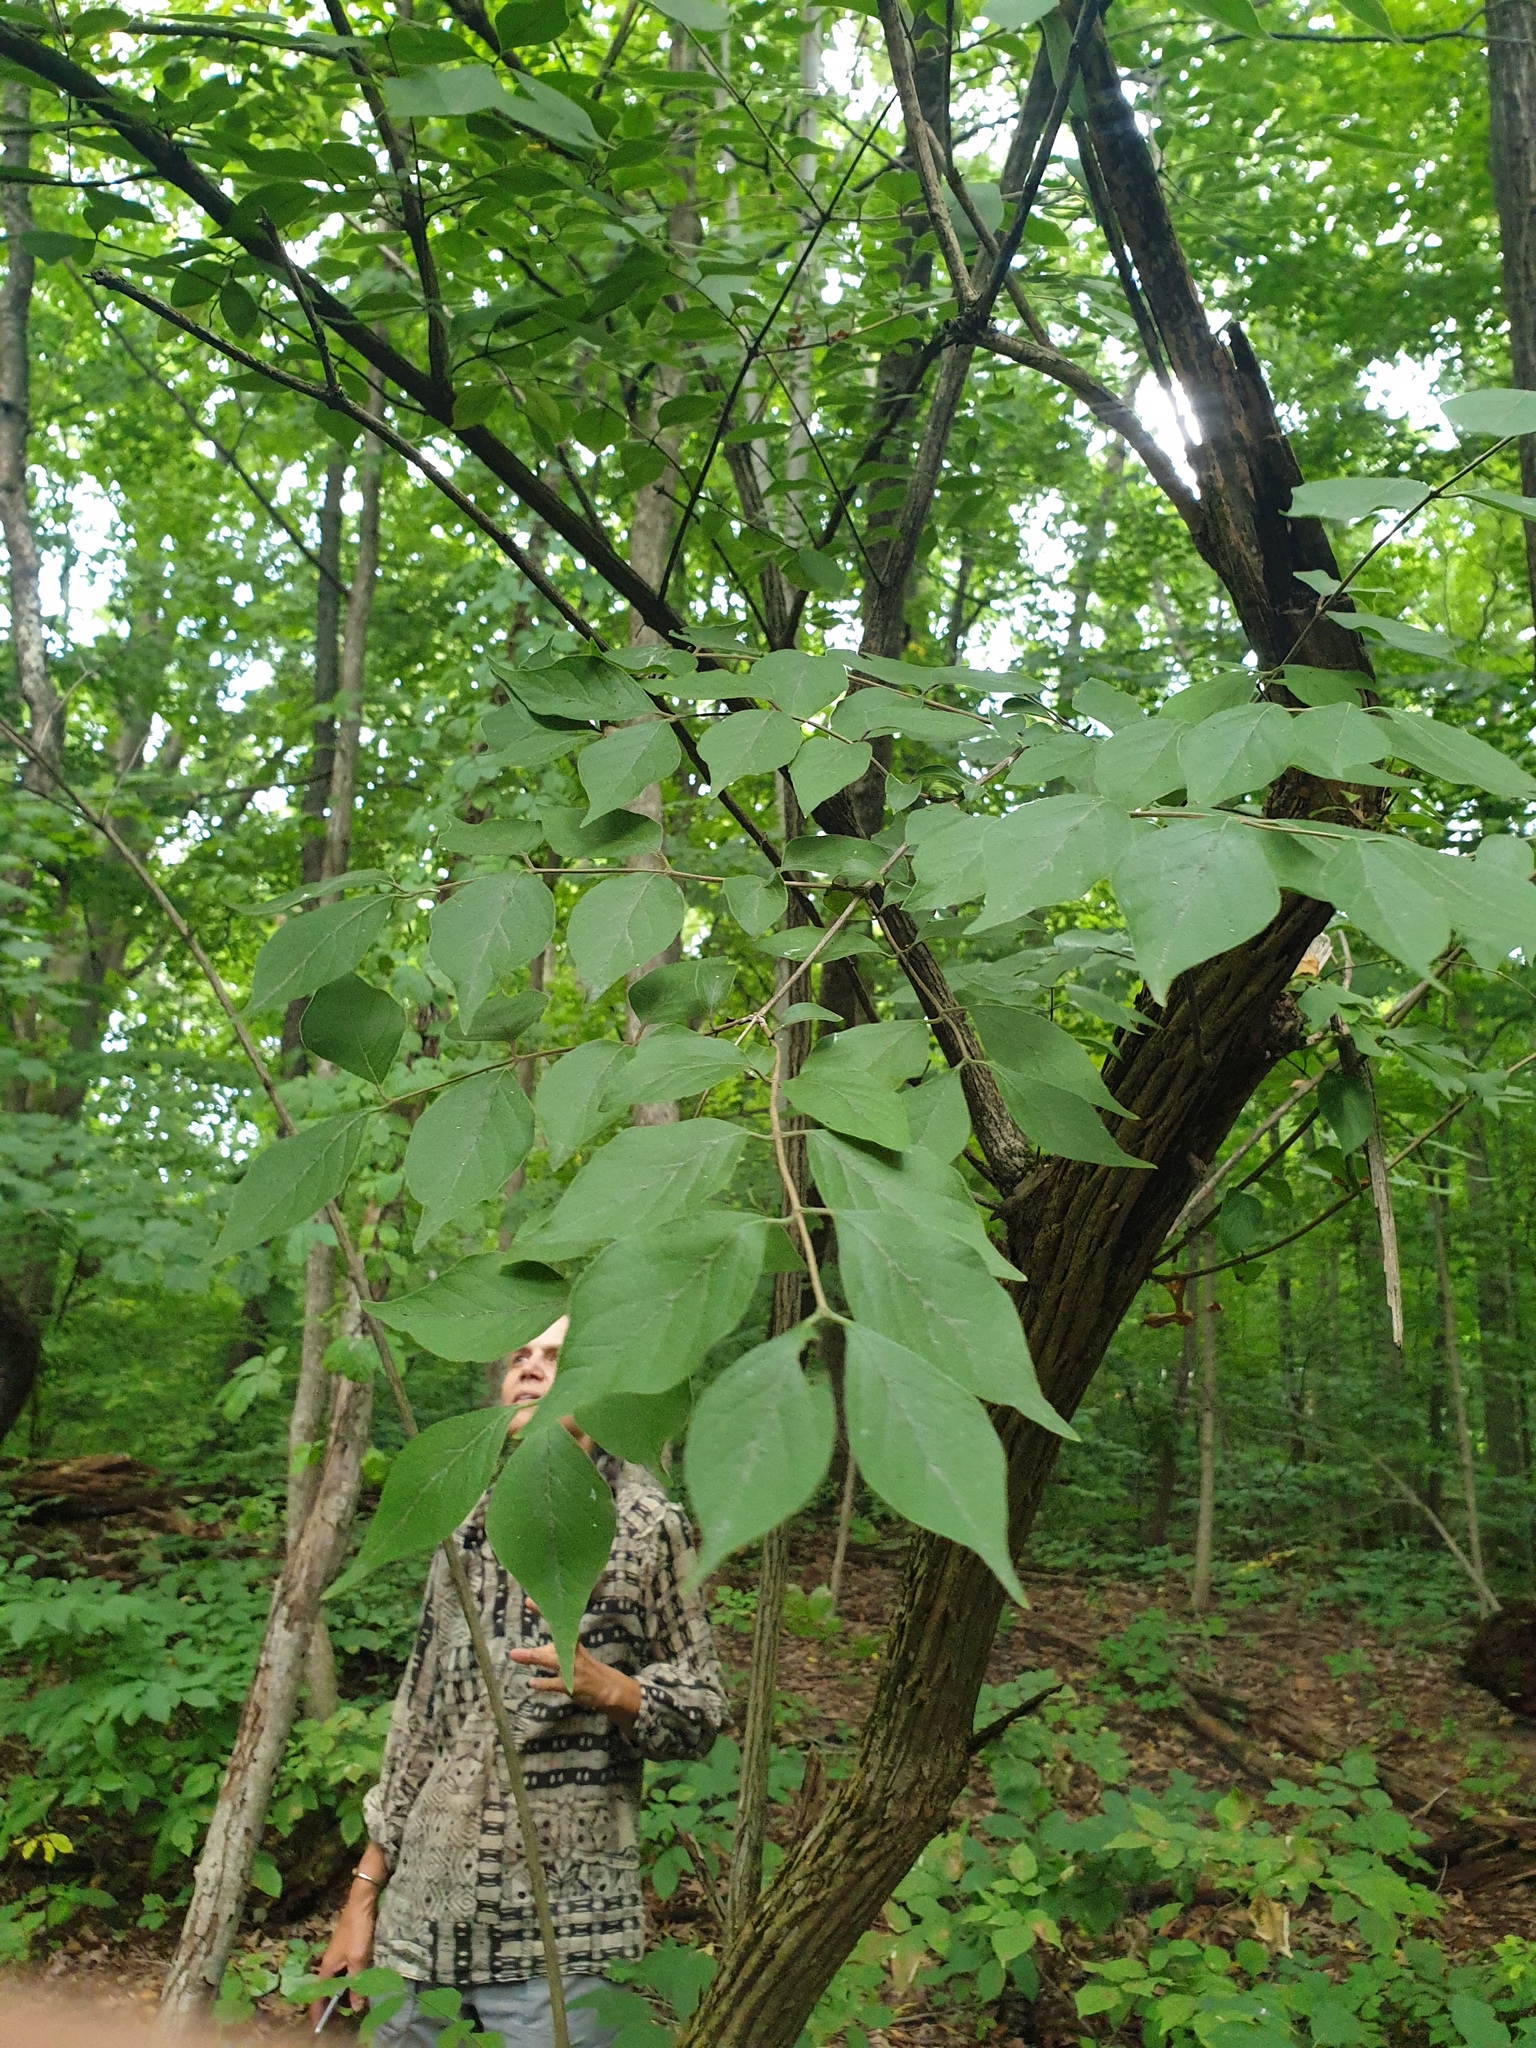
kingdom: Plantae
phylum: Tracheophyta
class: Magnoliopsida
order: Dipsacales
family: Caprifoliaceae
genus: Lonicera
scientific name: Lonicera maackii
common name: Amur honeysuckle
